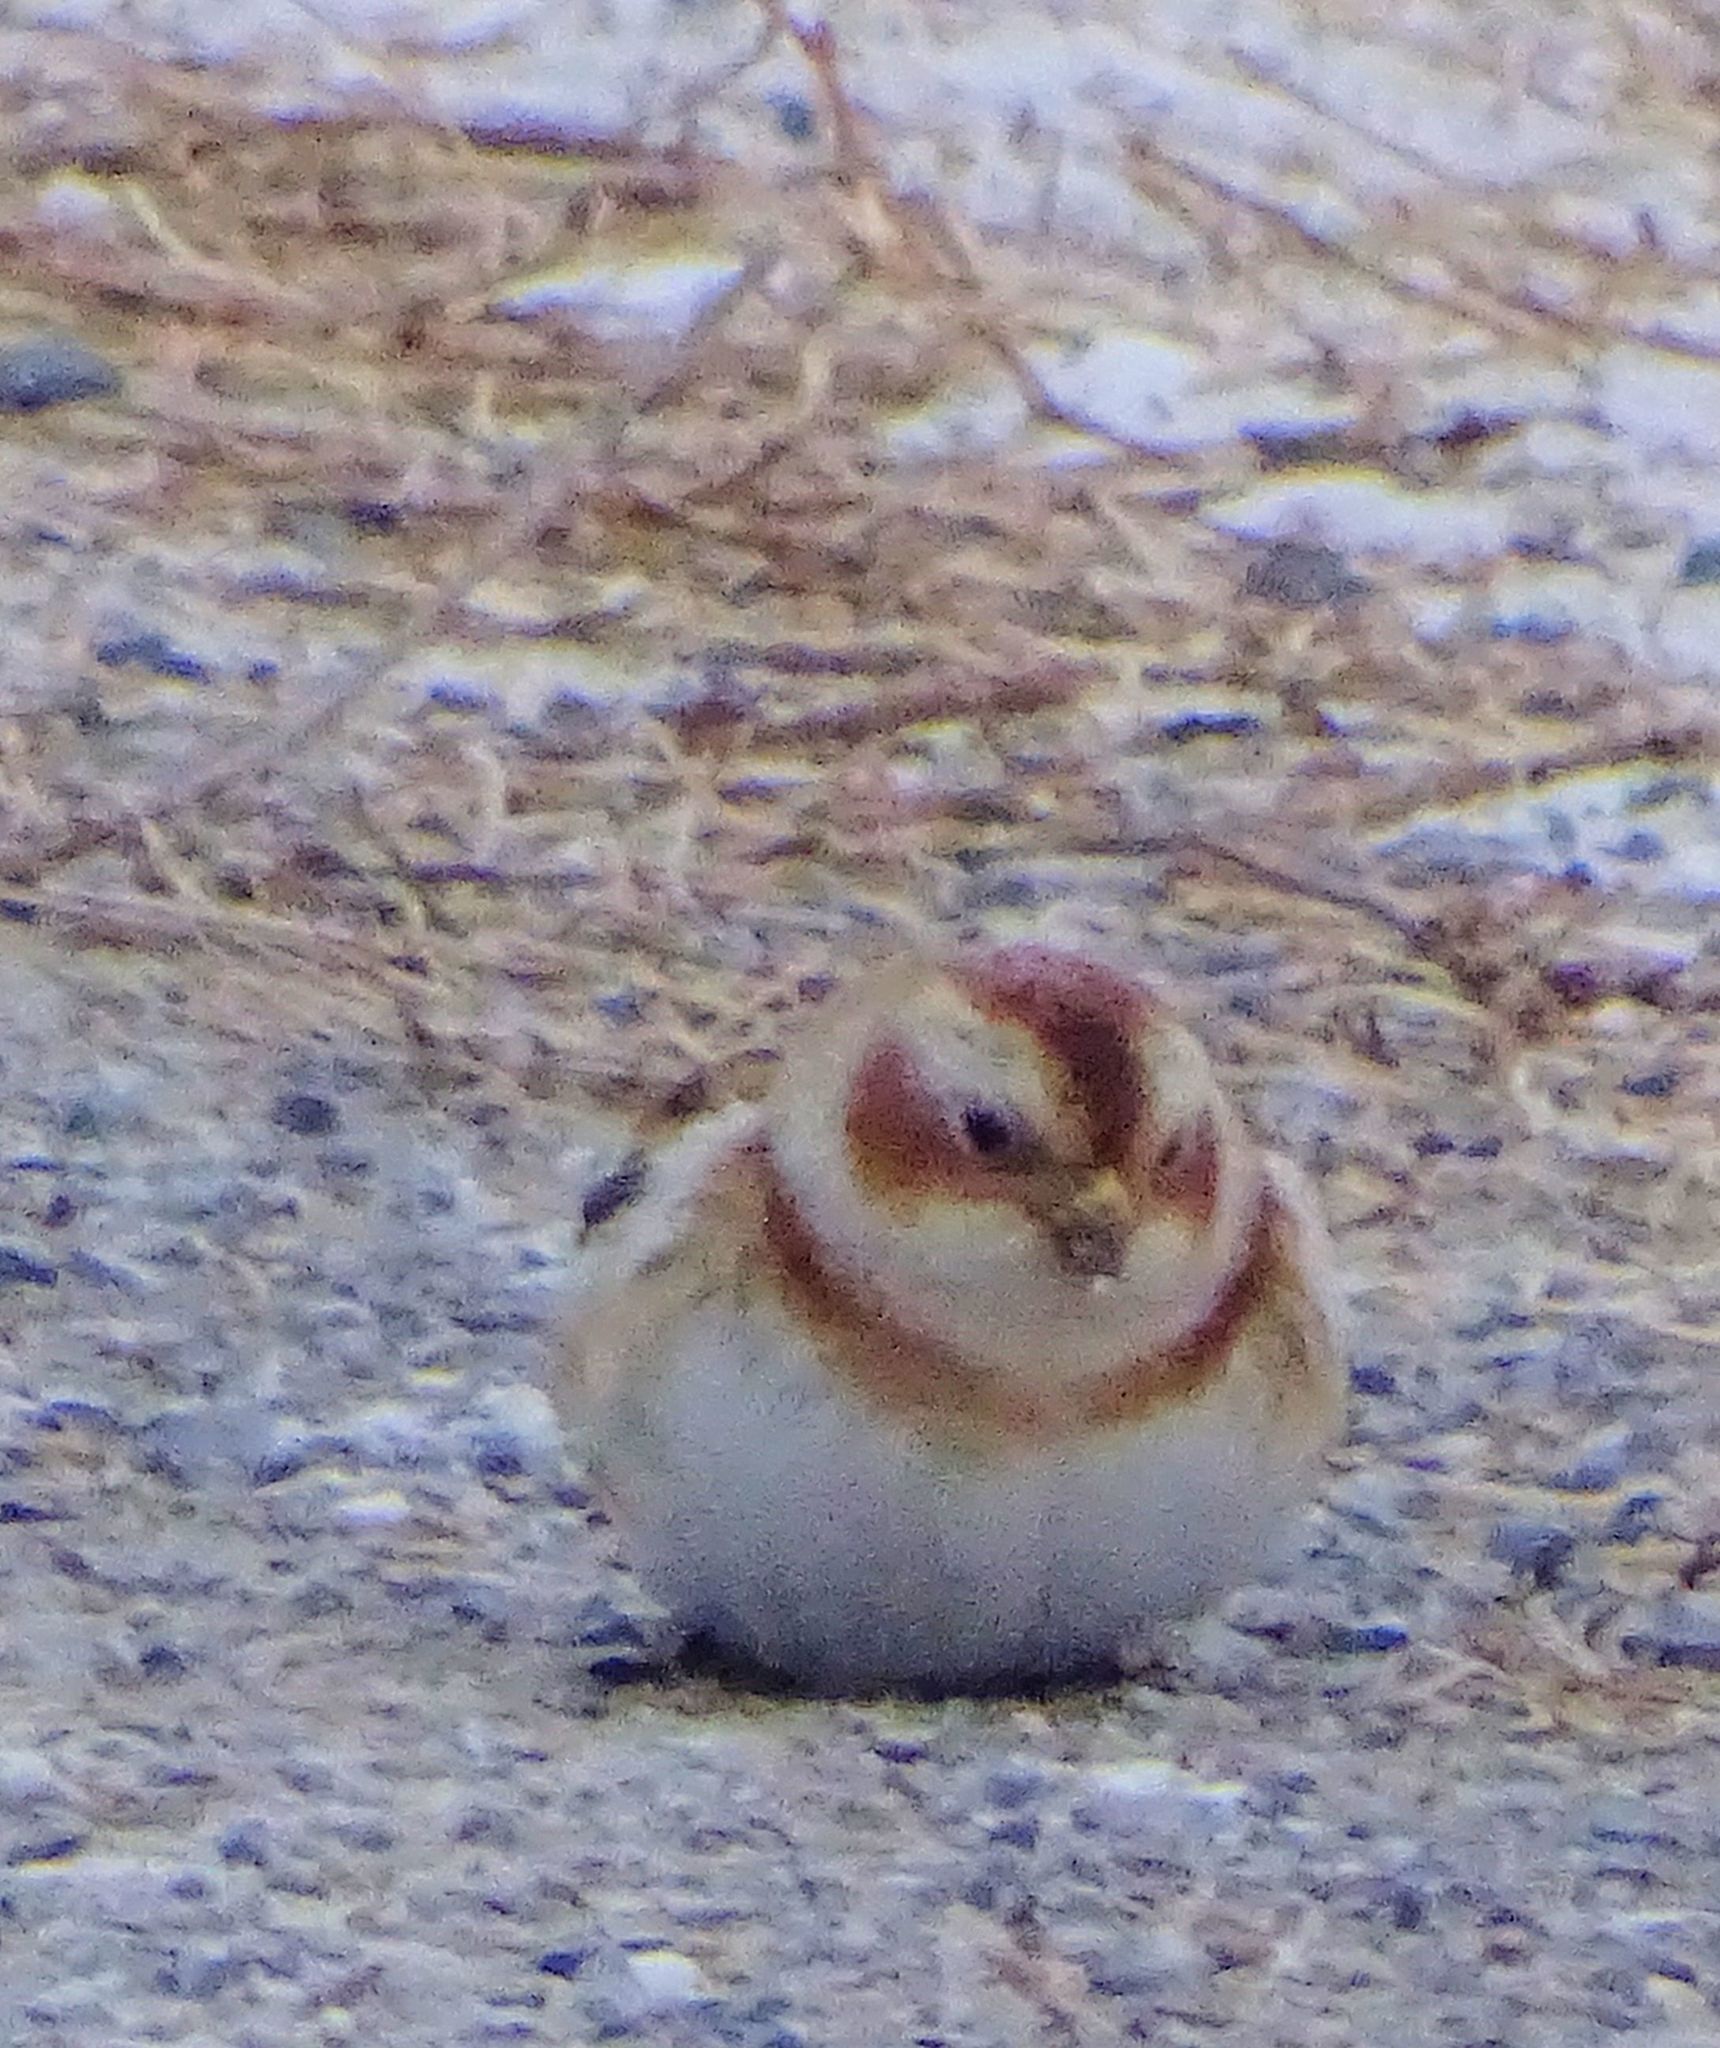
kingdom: Animalia
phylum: Chordata
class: Aves
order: Passeriformes
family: Calcariidae
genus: Plectrophenax
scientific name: Plectrophenax nivalis
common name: Snow bunting
